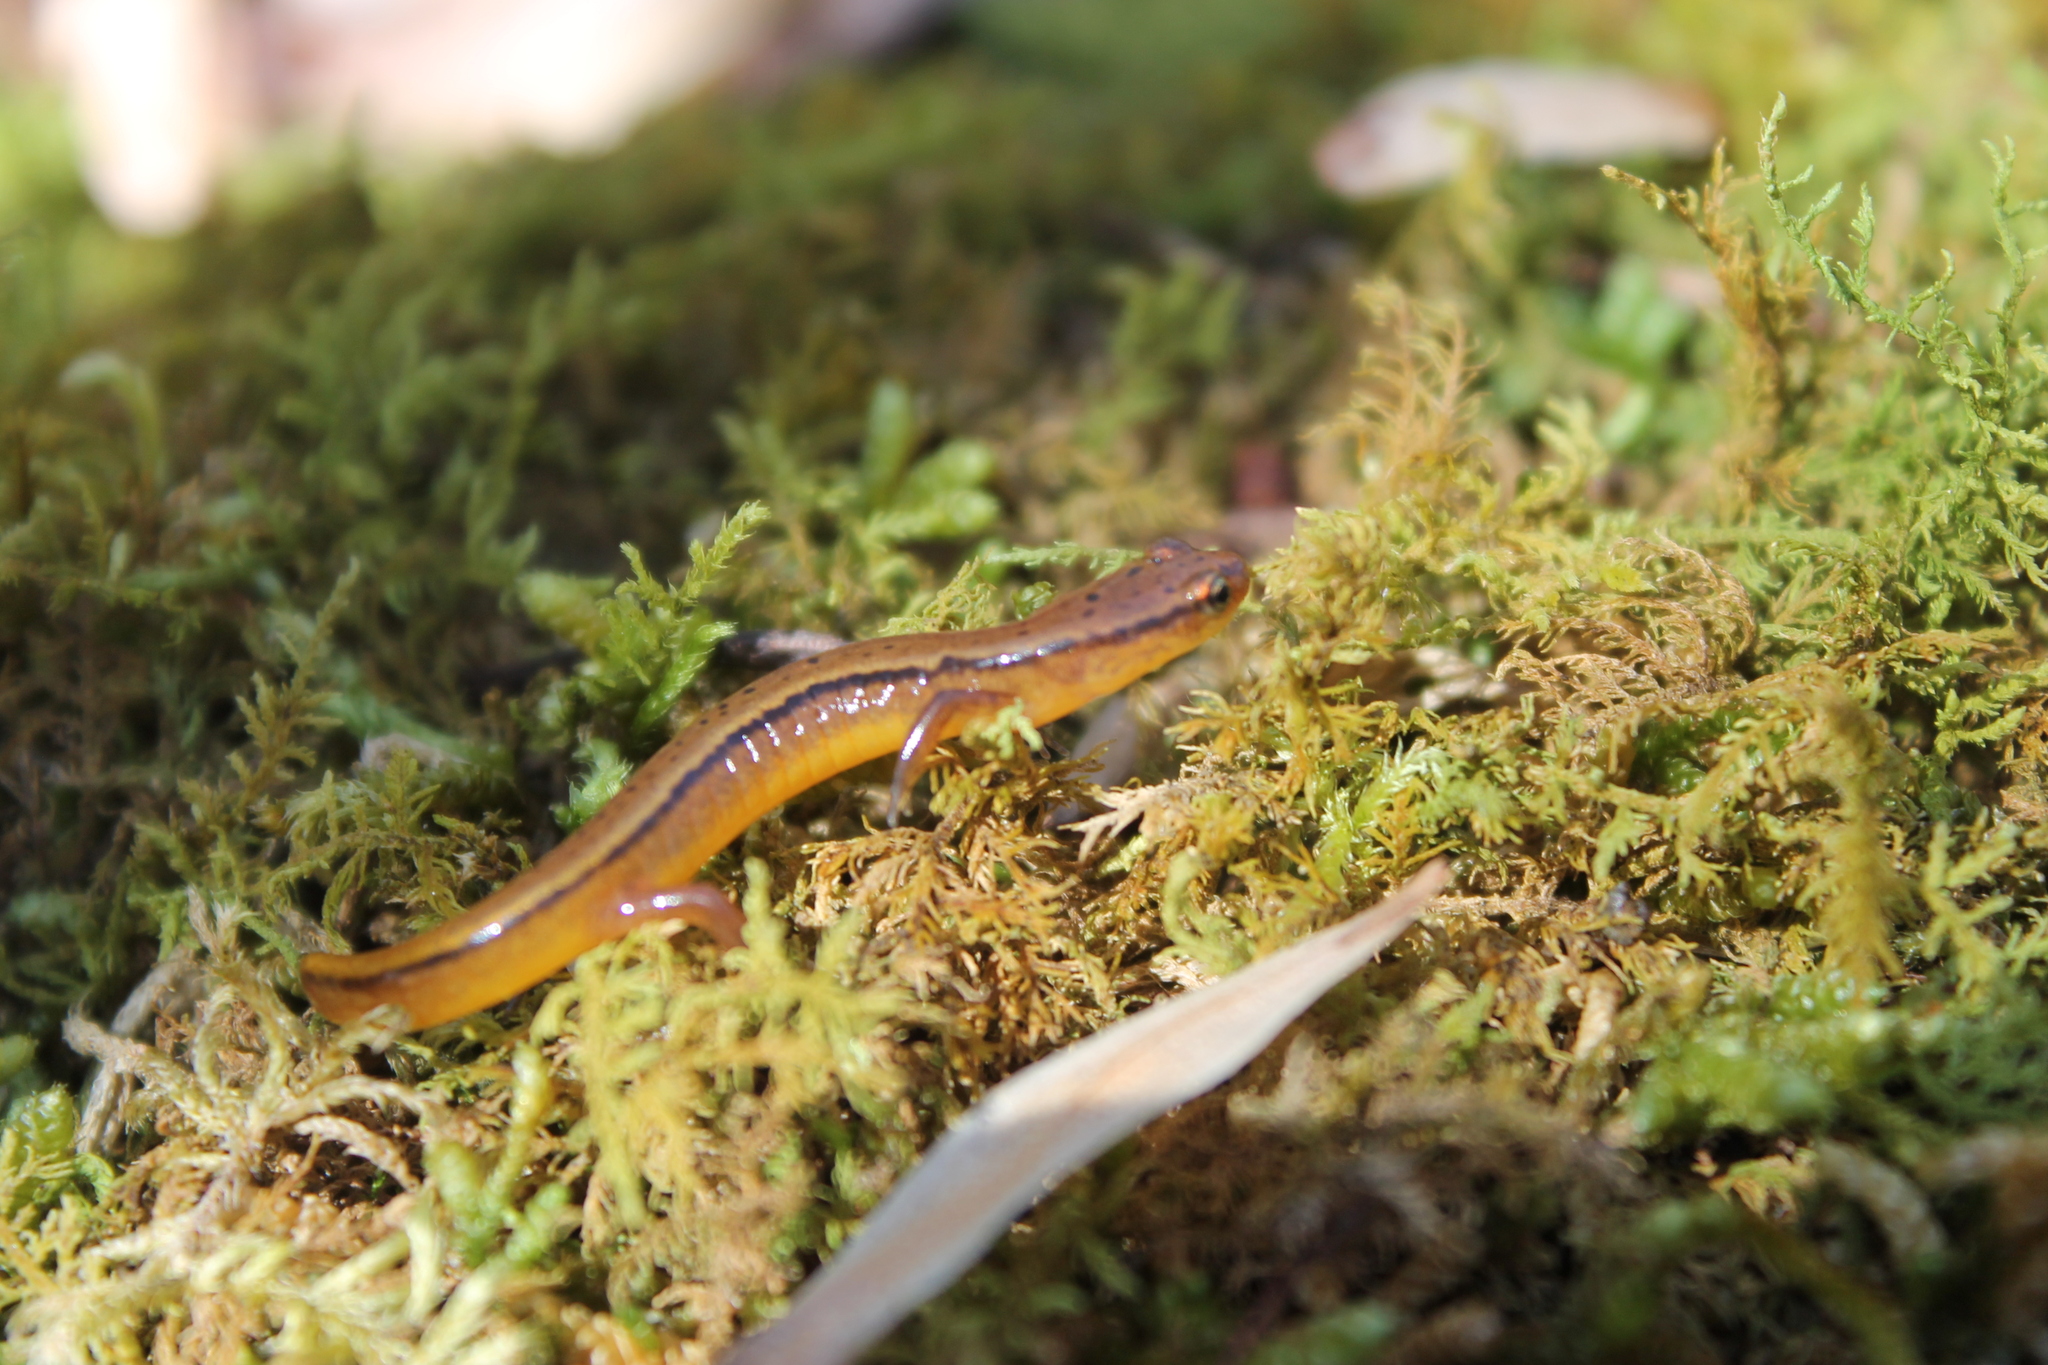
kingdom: Animalia
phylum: Chordata
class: Amphibia
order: Caudata
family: Plethodontidae
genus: Eurycea
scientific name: Eurycea wilderae
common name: Blue ridge two-lined salamander
